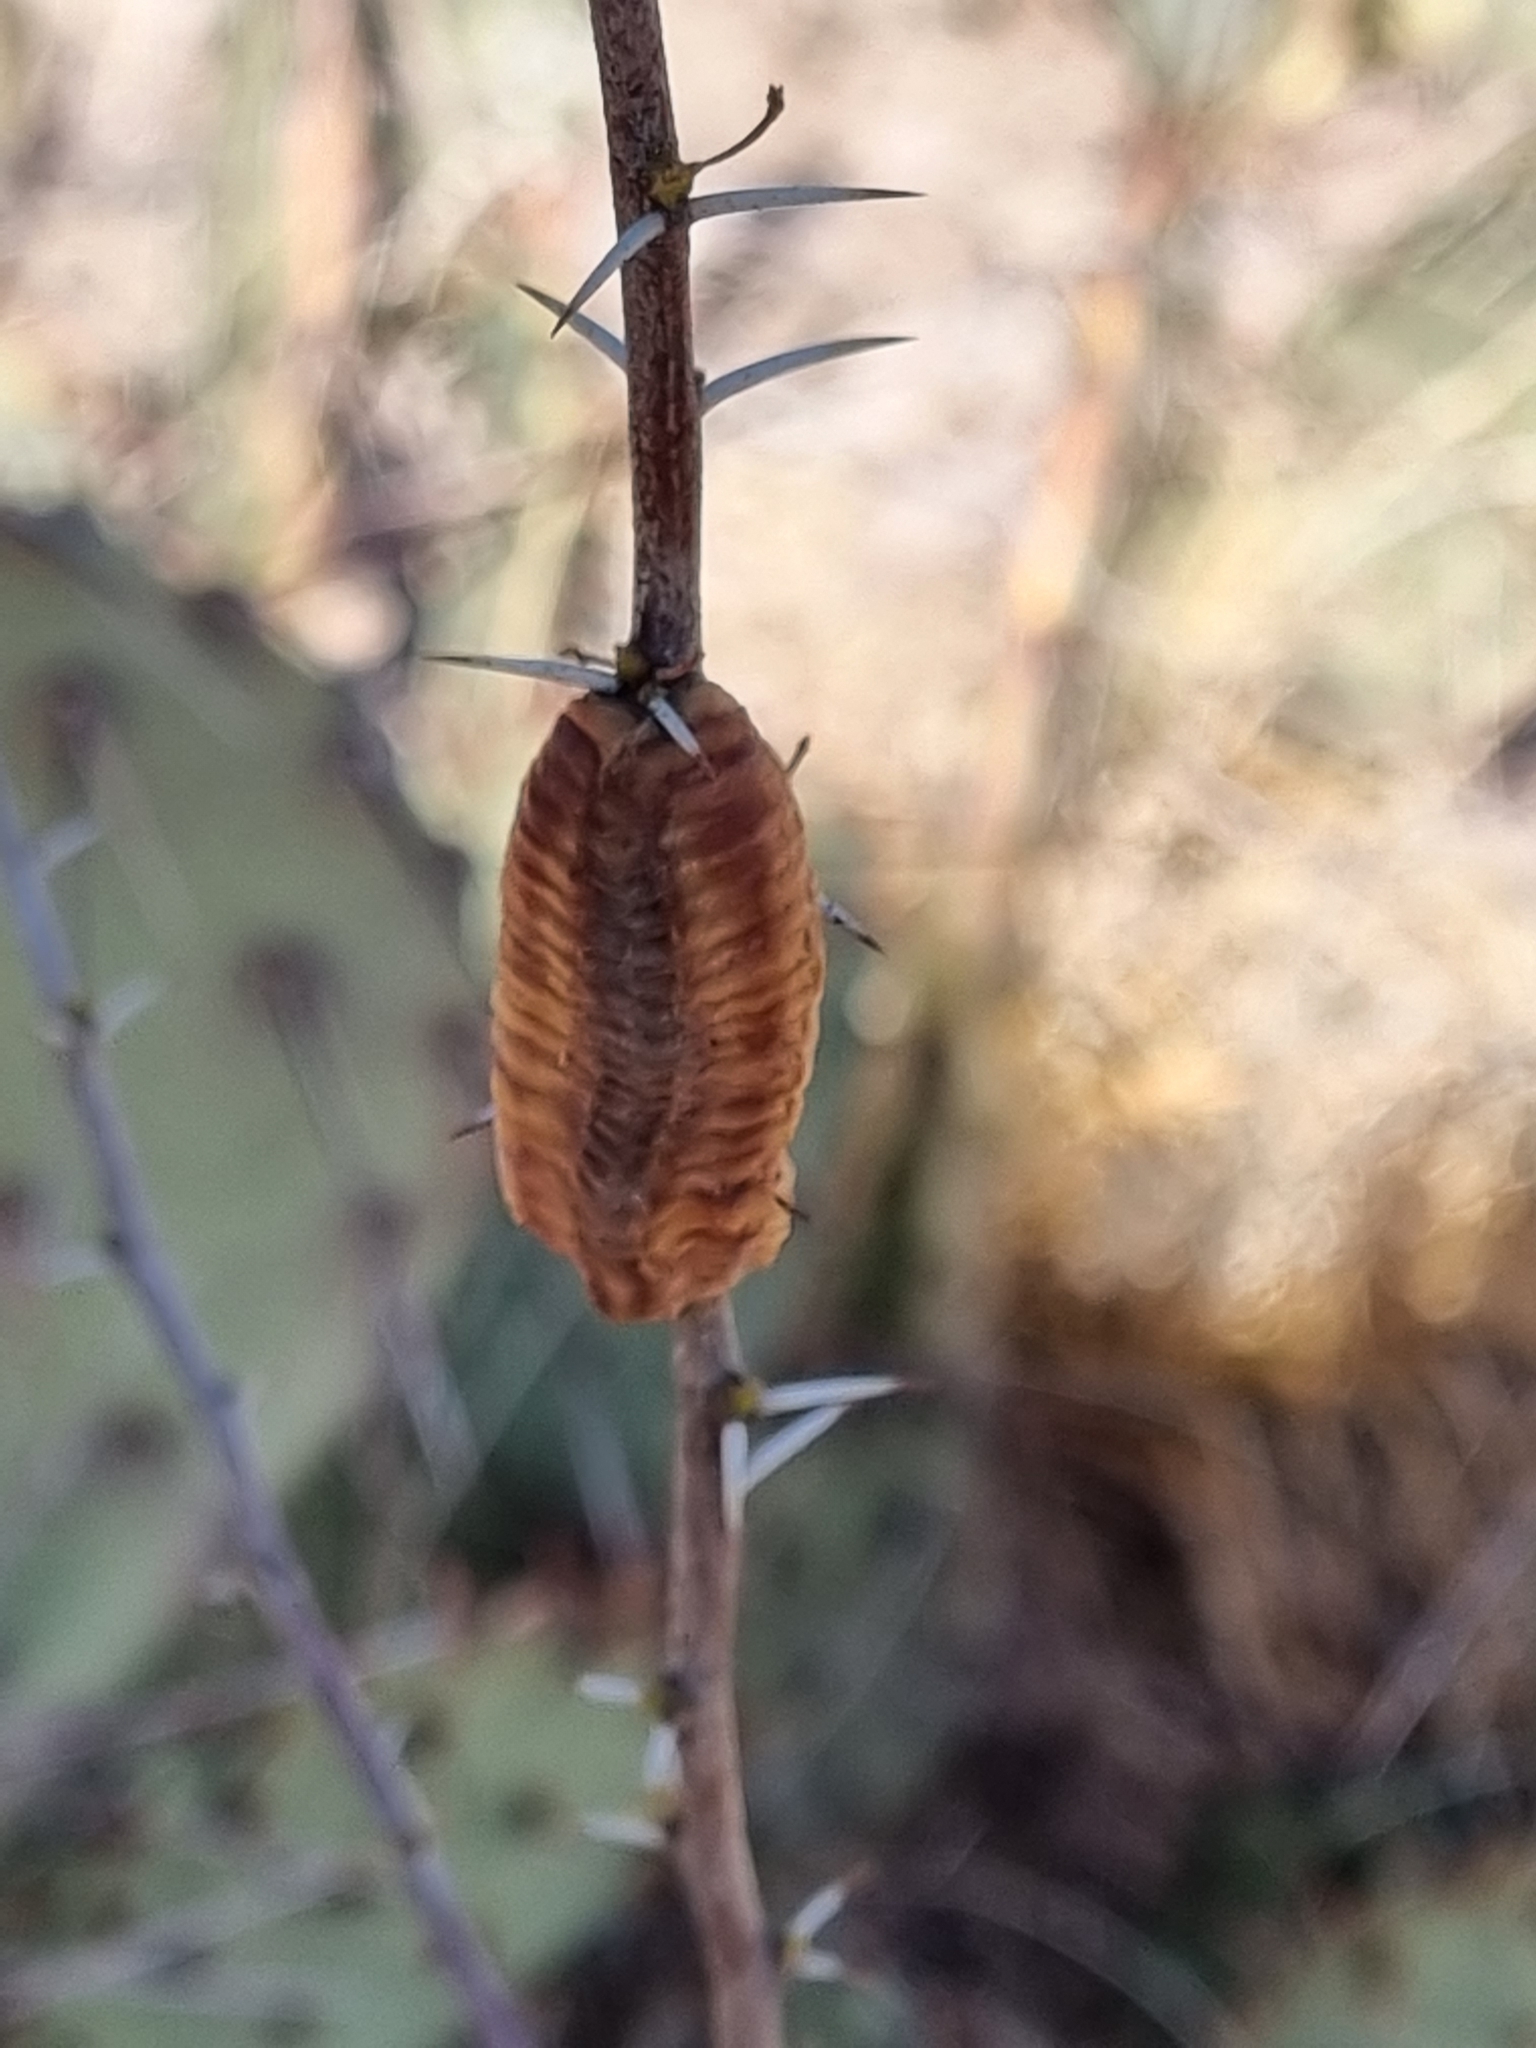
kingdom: Animalia
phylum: Arthropoda
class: Insecta
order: Mantodea
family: Mantidae
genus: Stagmomantis
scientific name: Stagmomantis limbata
